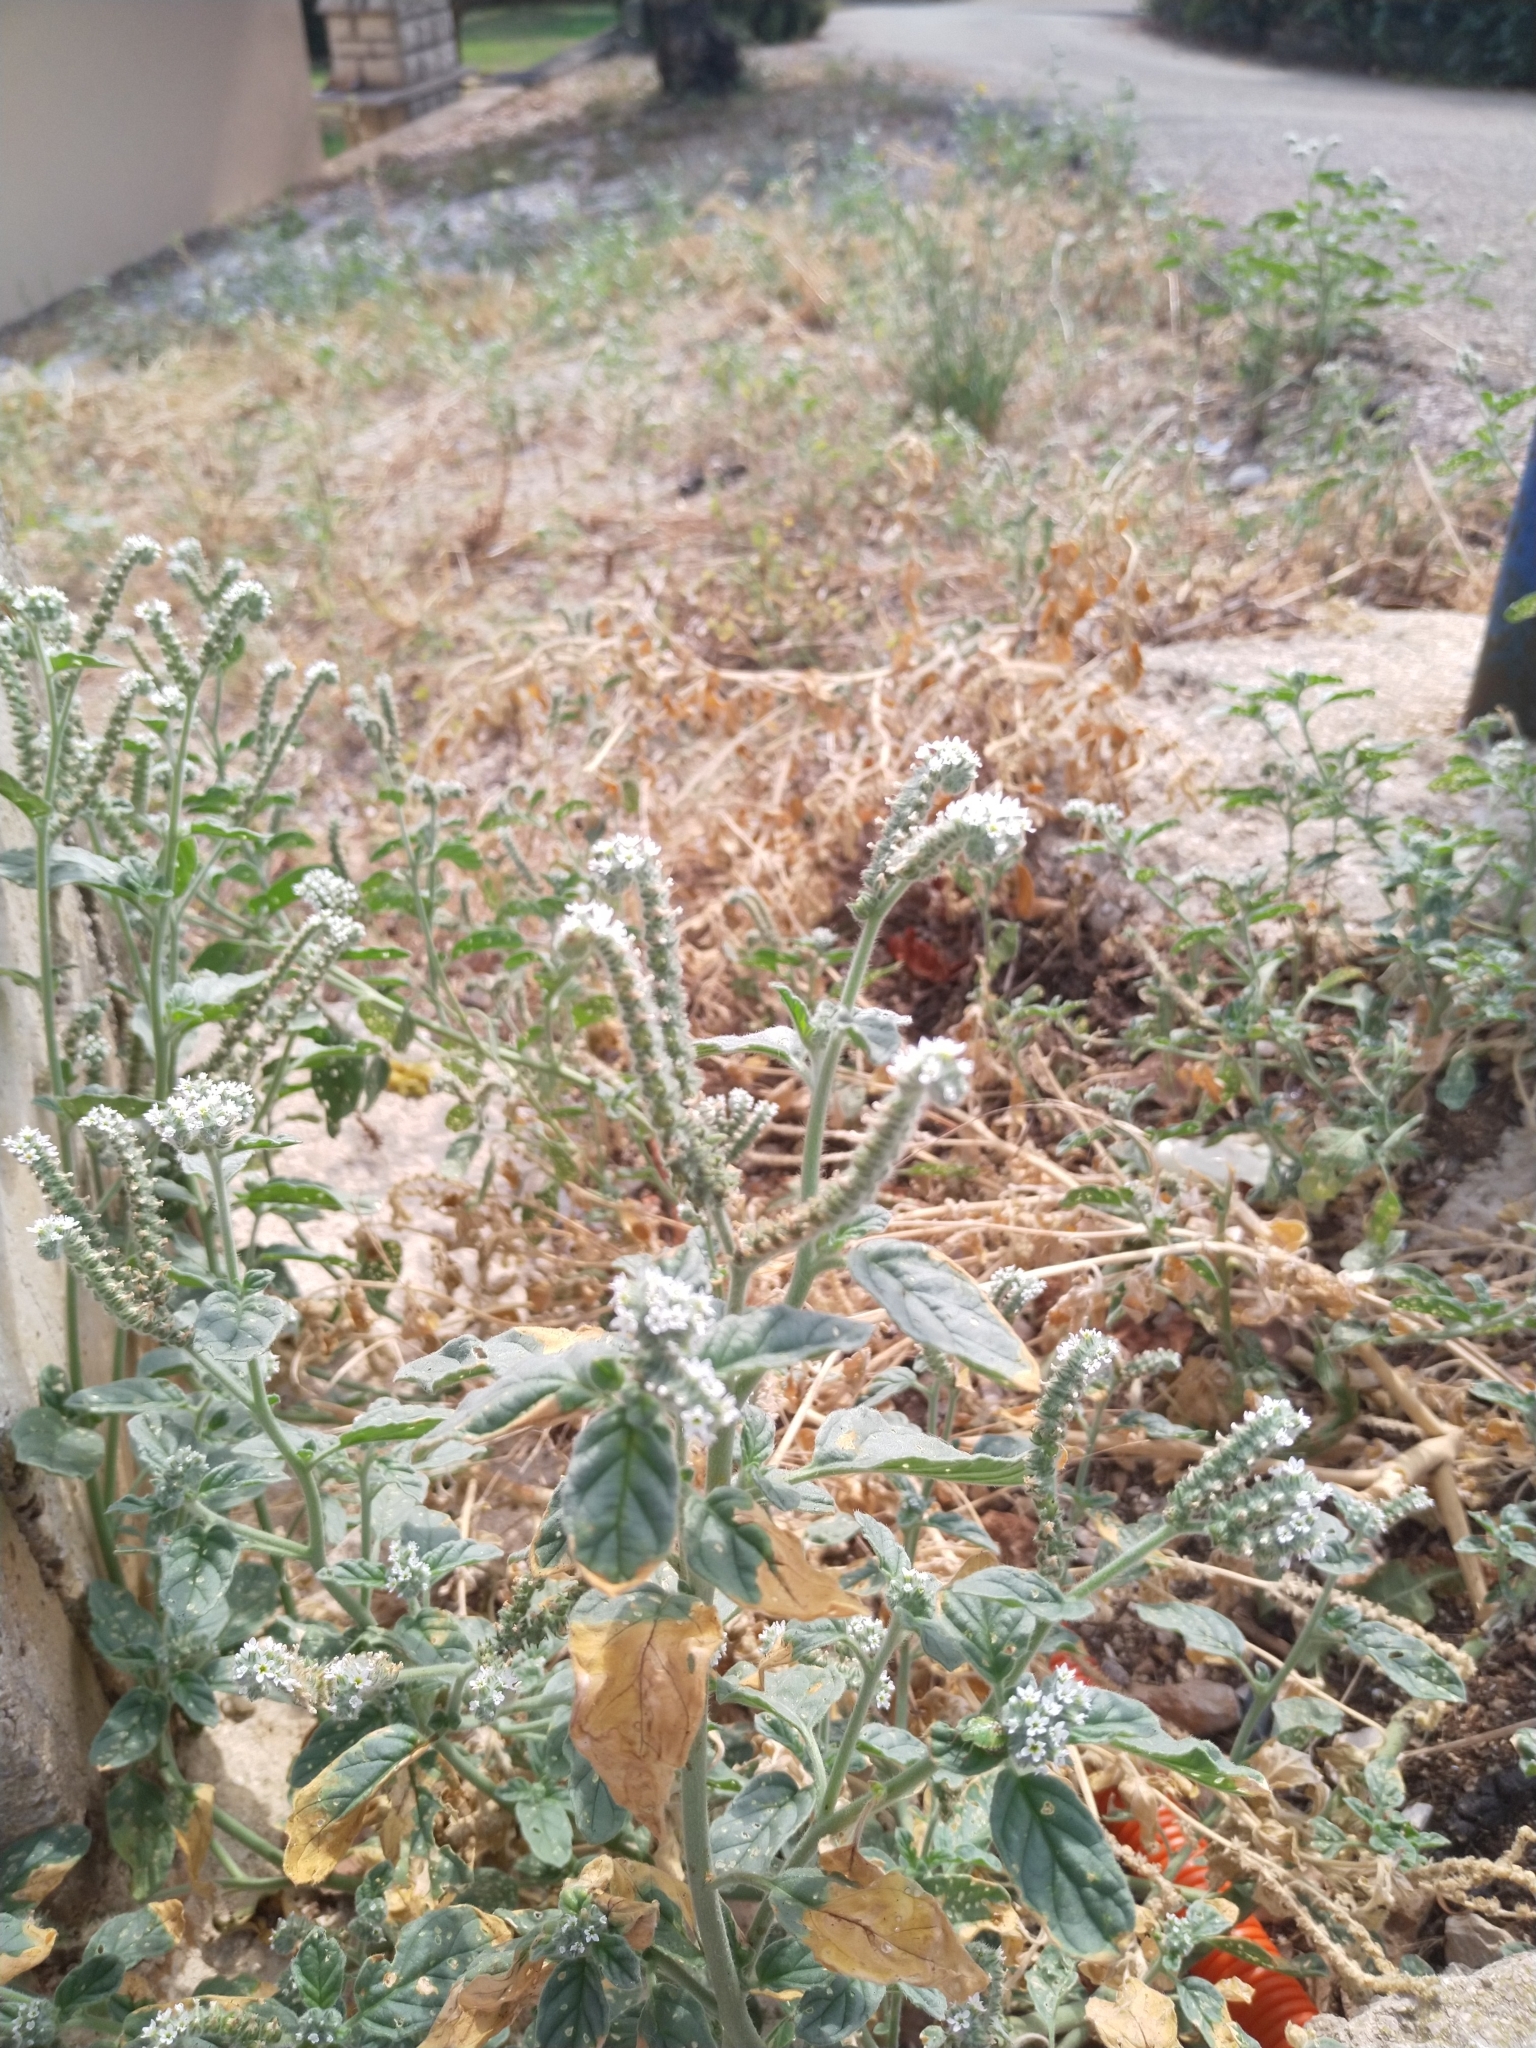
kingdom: Plantae
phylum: Tracheophyta
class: Magnoliopsida
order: Boraginales
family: Heliotropiaceae
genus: Heliotropium
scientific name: Heliotropium europaeum
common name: European heliotrope
